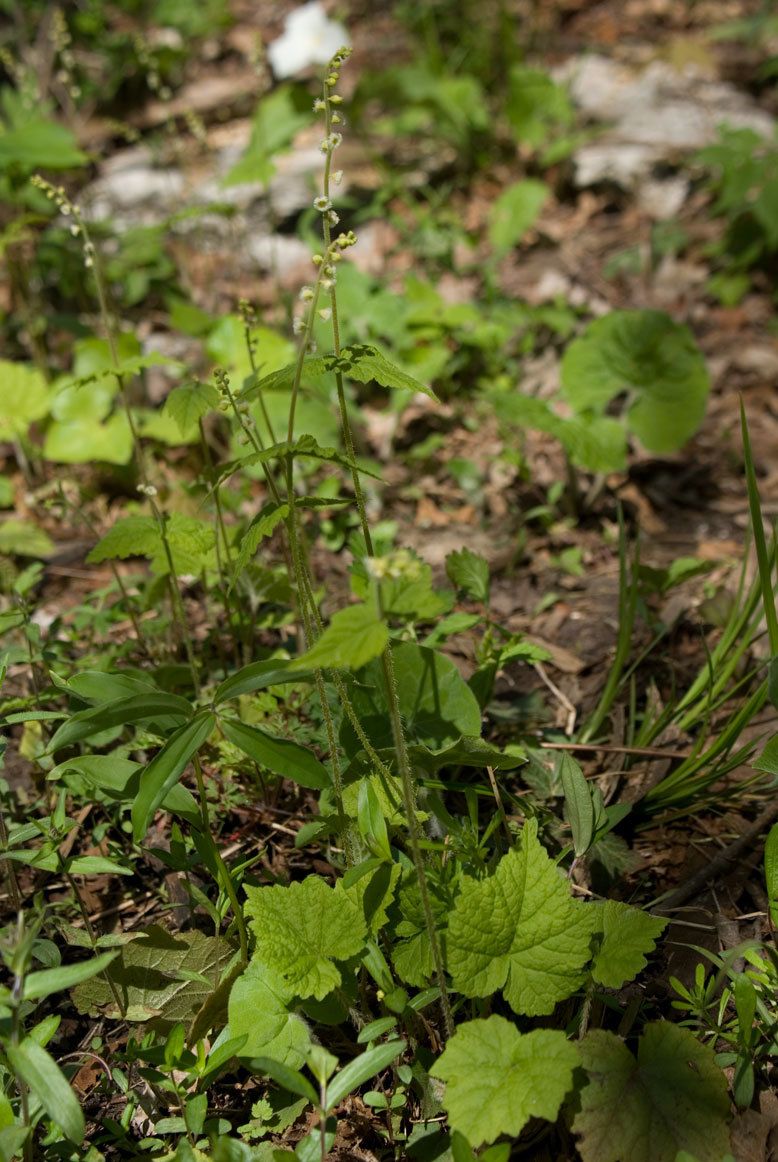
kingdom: Plantae
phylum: Tracheophyta
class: Magnoliopsida
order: Saxifragales
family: Saxifragaceae
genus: Mitella
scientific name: Mitella diphylla
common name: Coolwort
